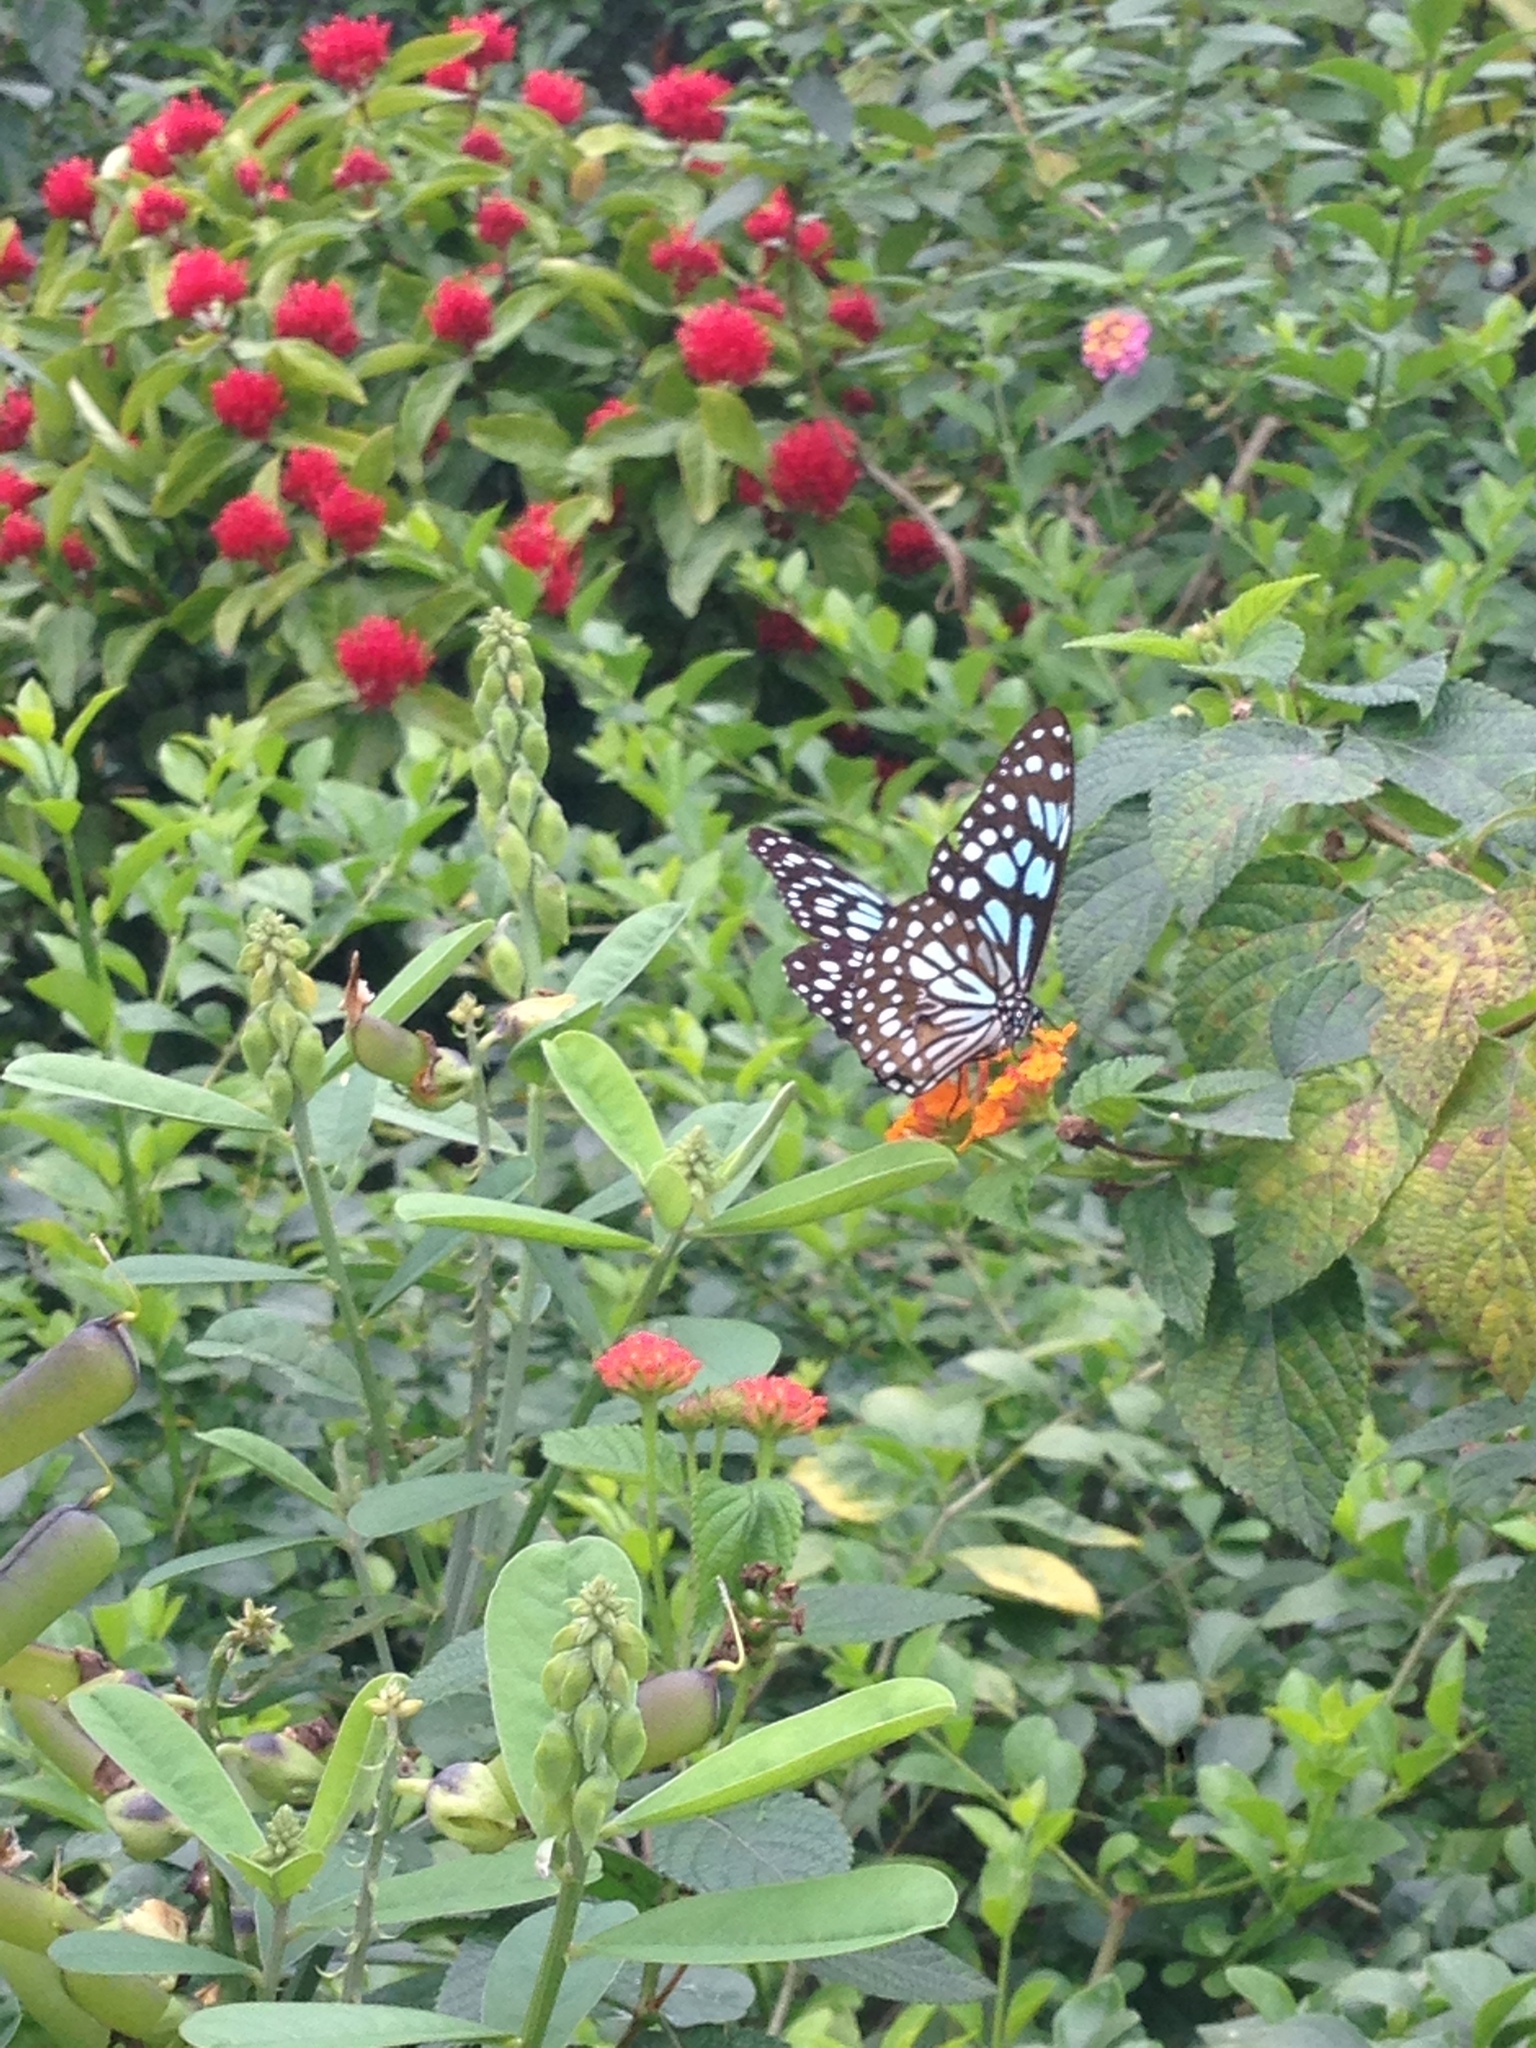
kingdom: Animalia
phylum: Arthropoda
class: Insecta
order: Lepidoptera
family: Nymphalidae
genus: Tirumala
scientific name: Tirumala limniace
